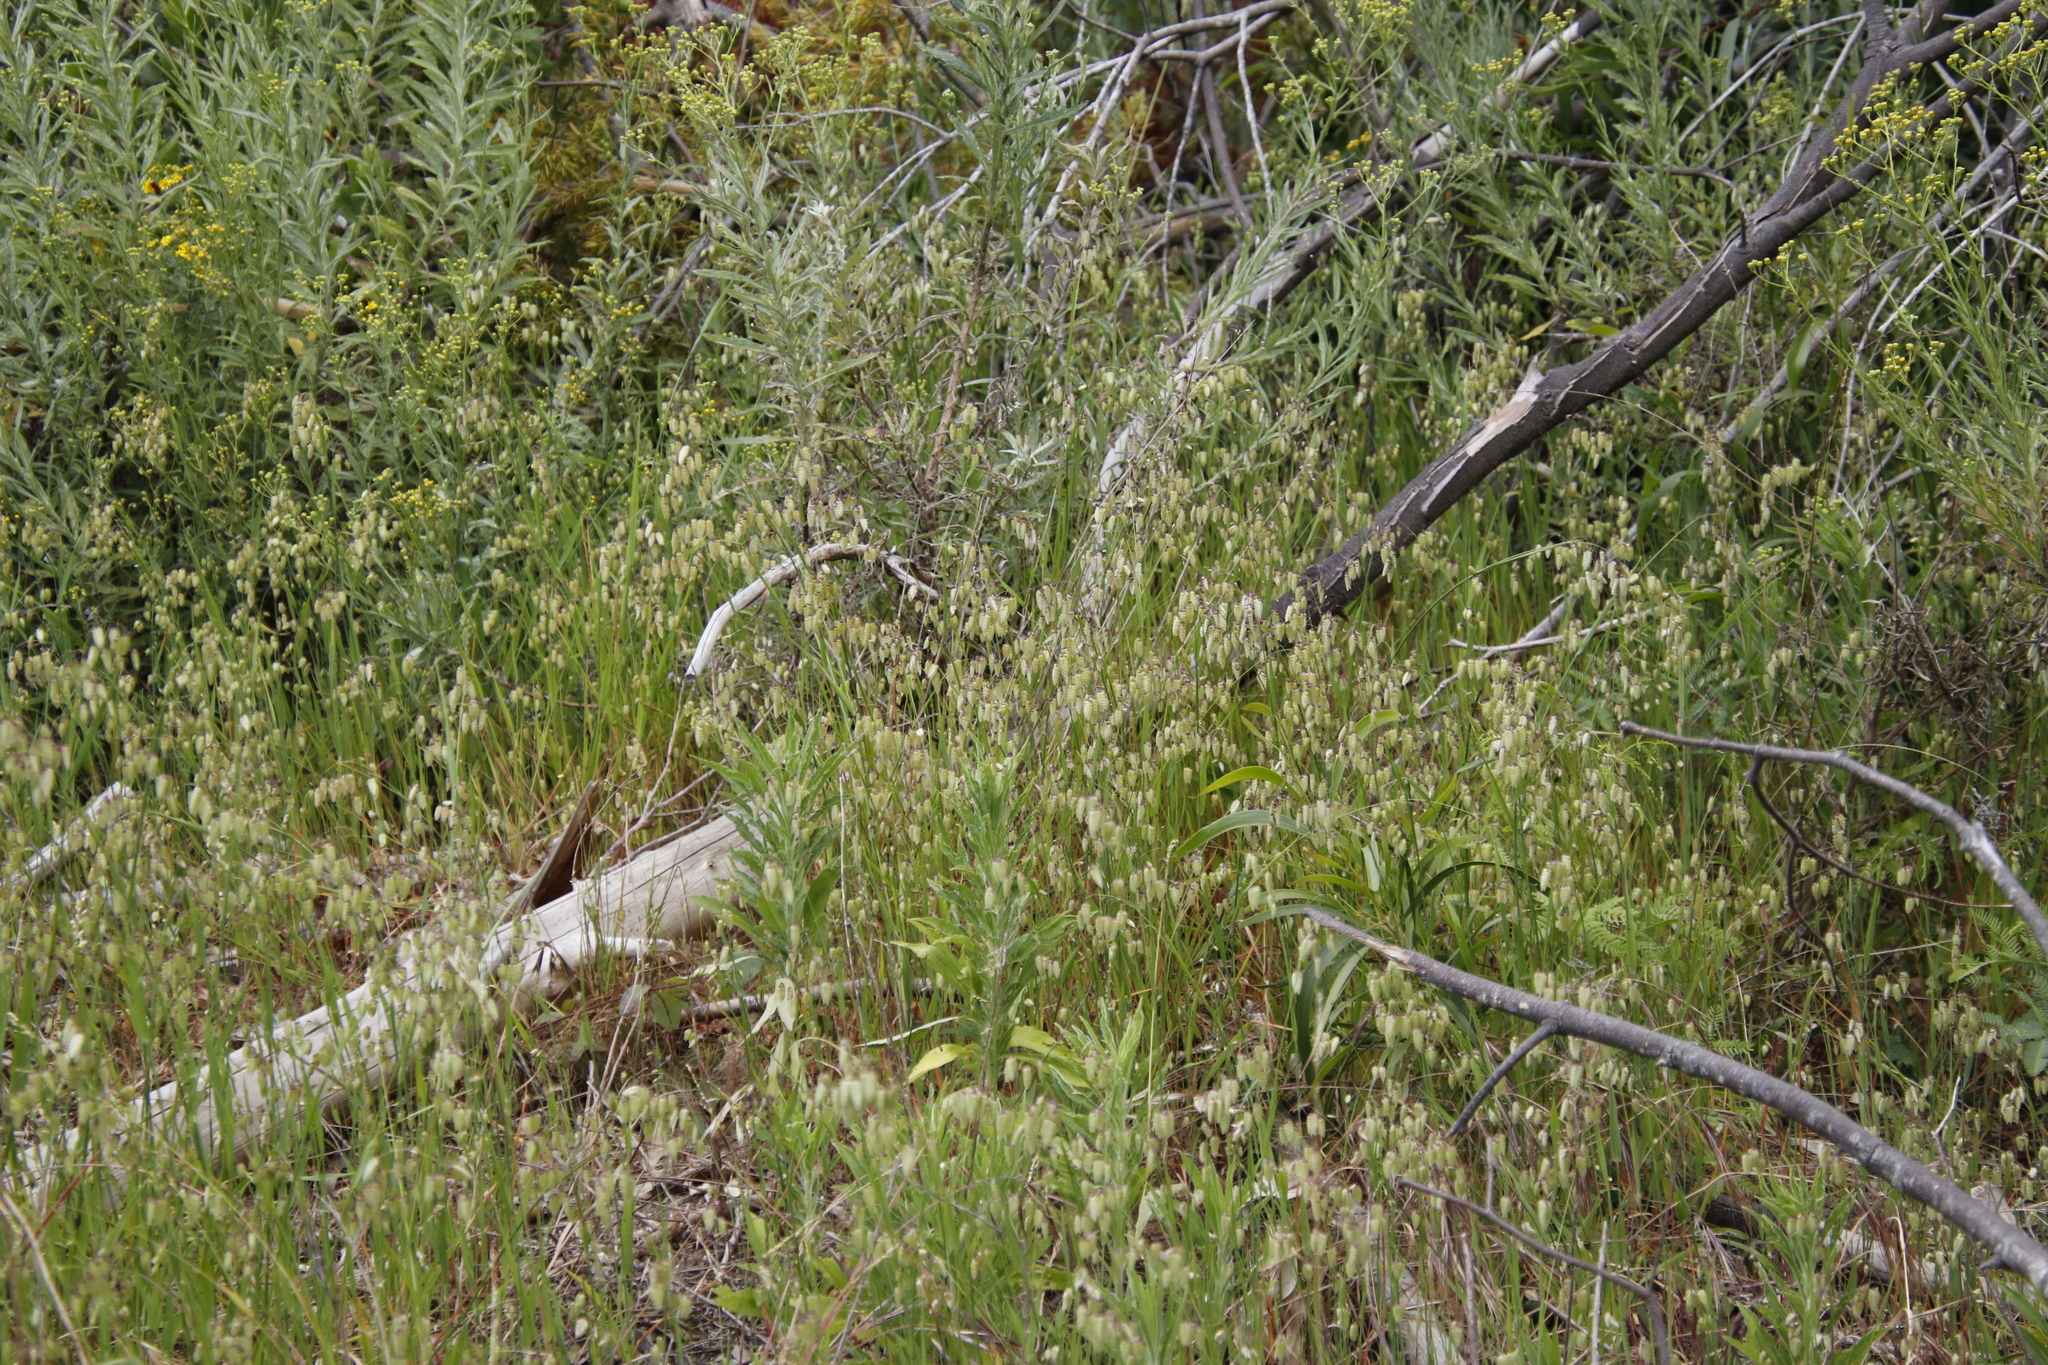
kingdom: Plantae
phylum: Tracheophyta
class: Liliopsida
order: Poales
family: Poaceae
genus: Briza
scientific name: Briza maxima
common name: Big quakinggrass
